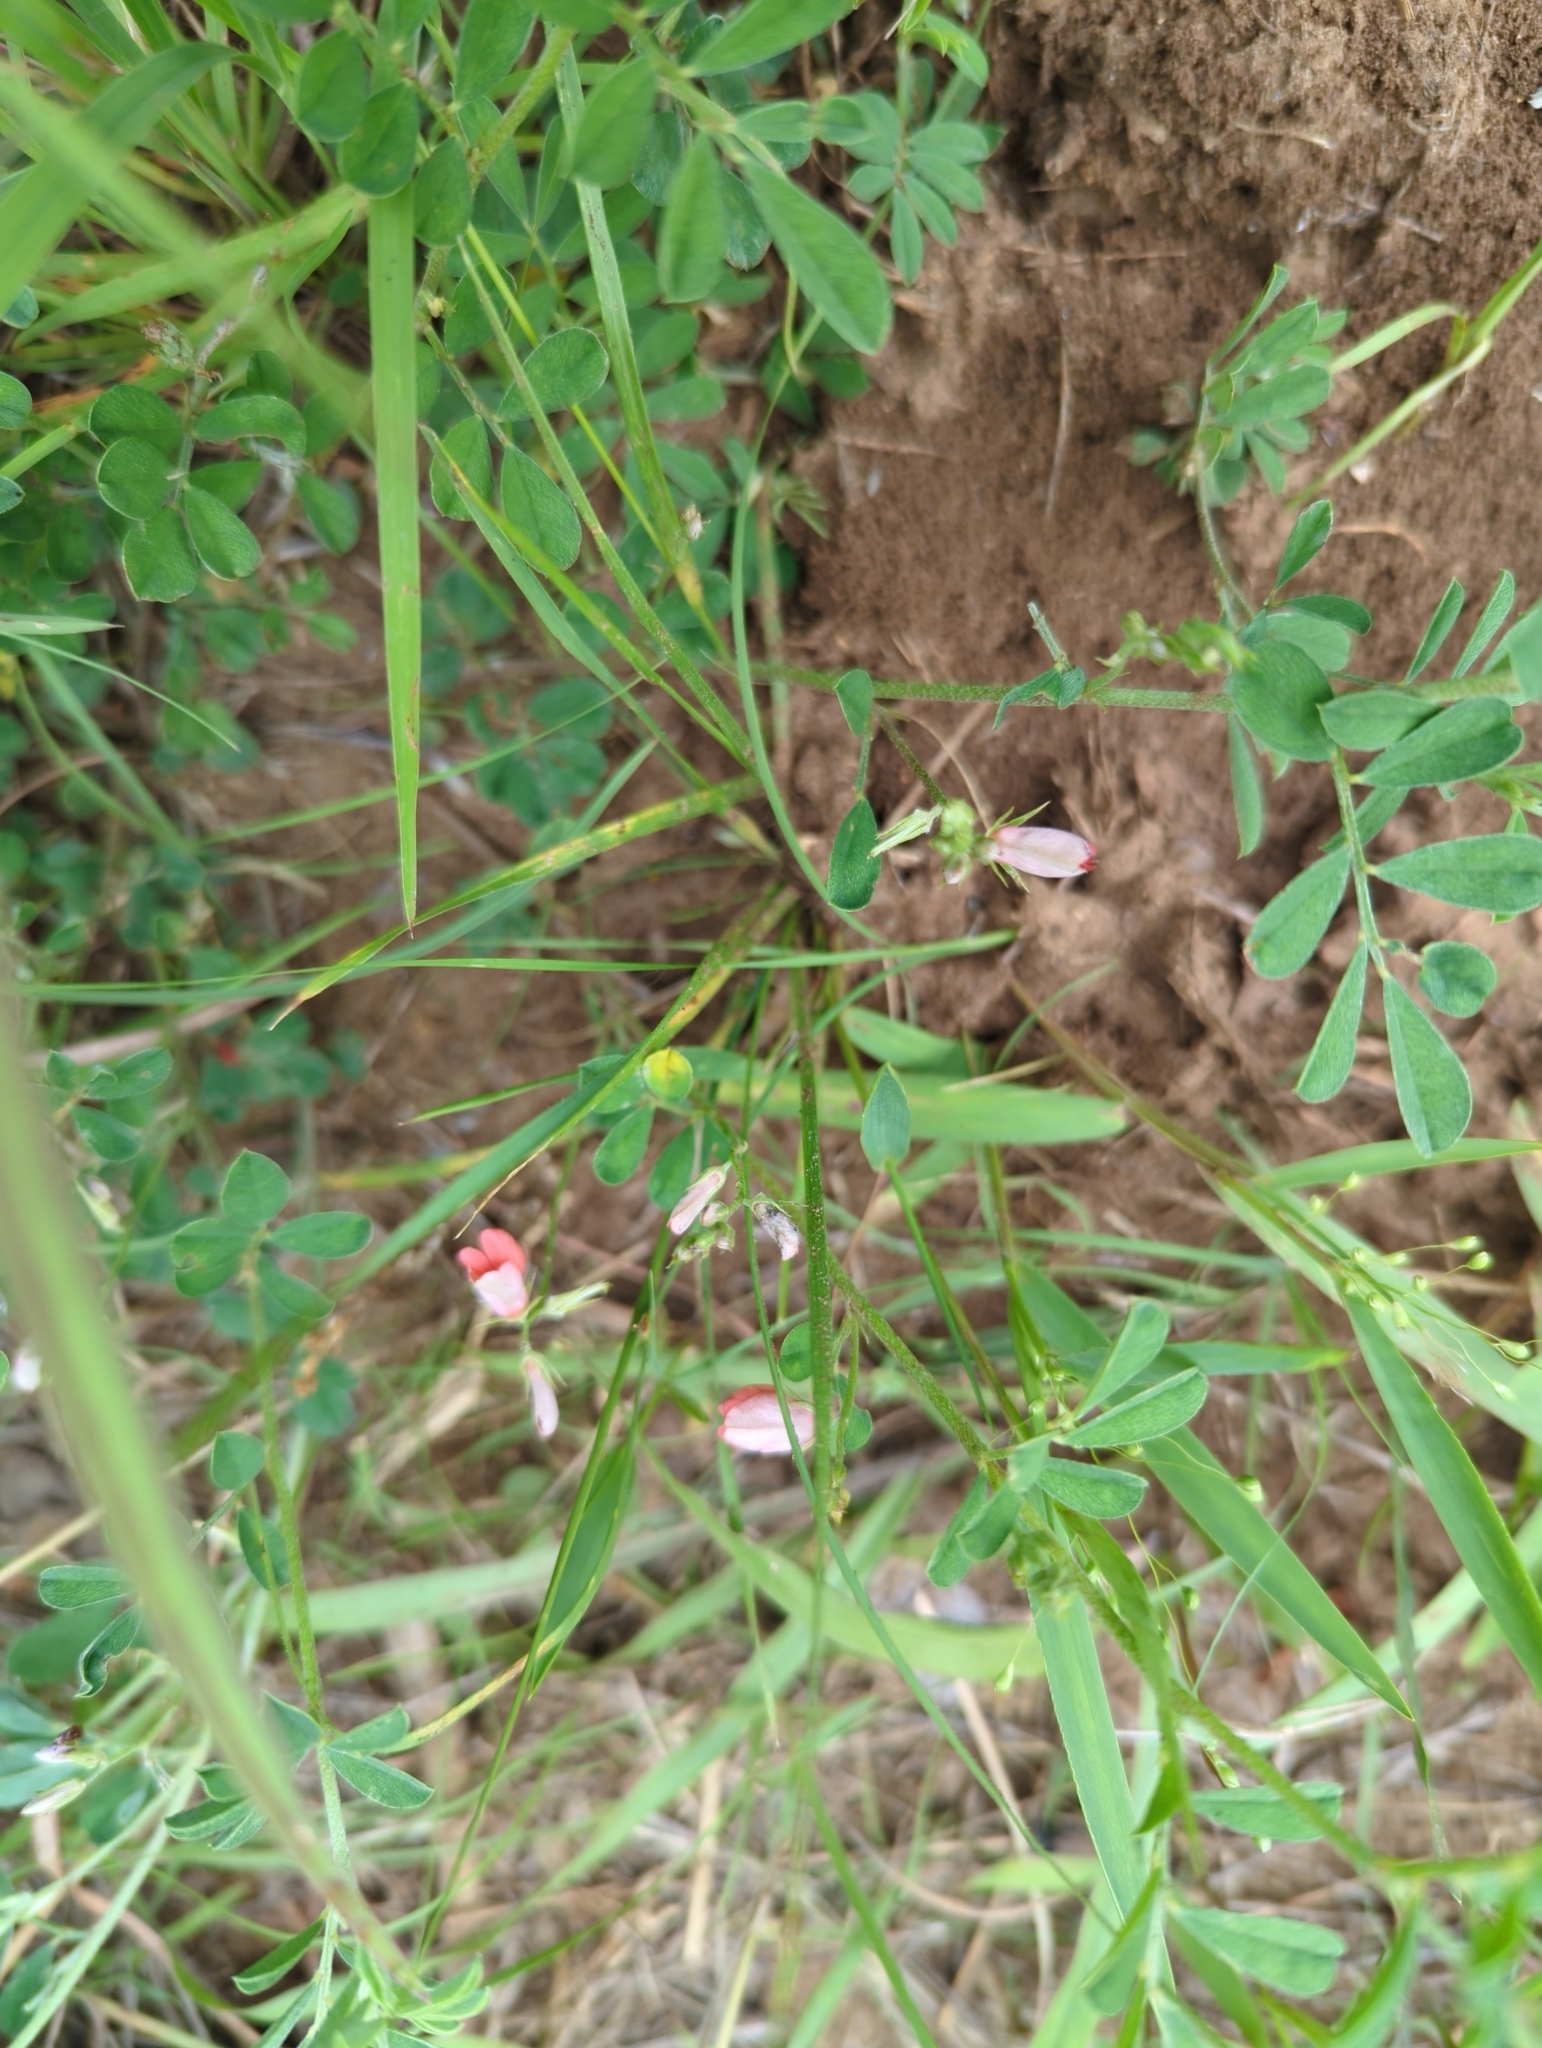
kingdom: Plantae
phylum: Tracheophyta
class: Magnoliopsida
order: Fabales
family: Fabaceae
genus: Indigofera
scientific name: Indigofera miniata
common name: Coast indigo
